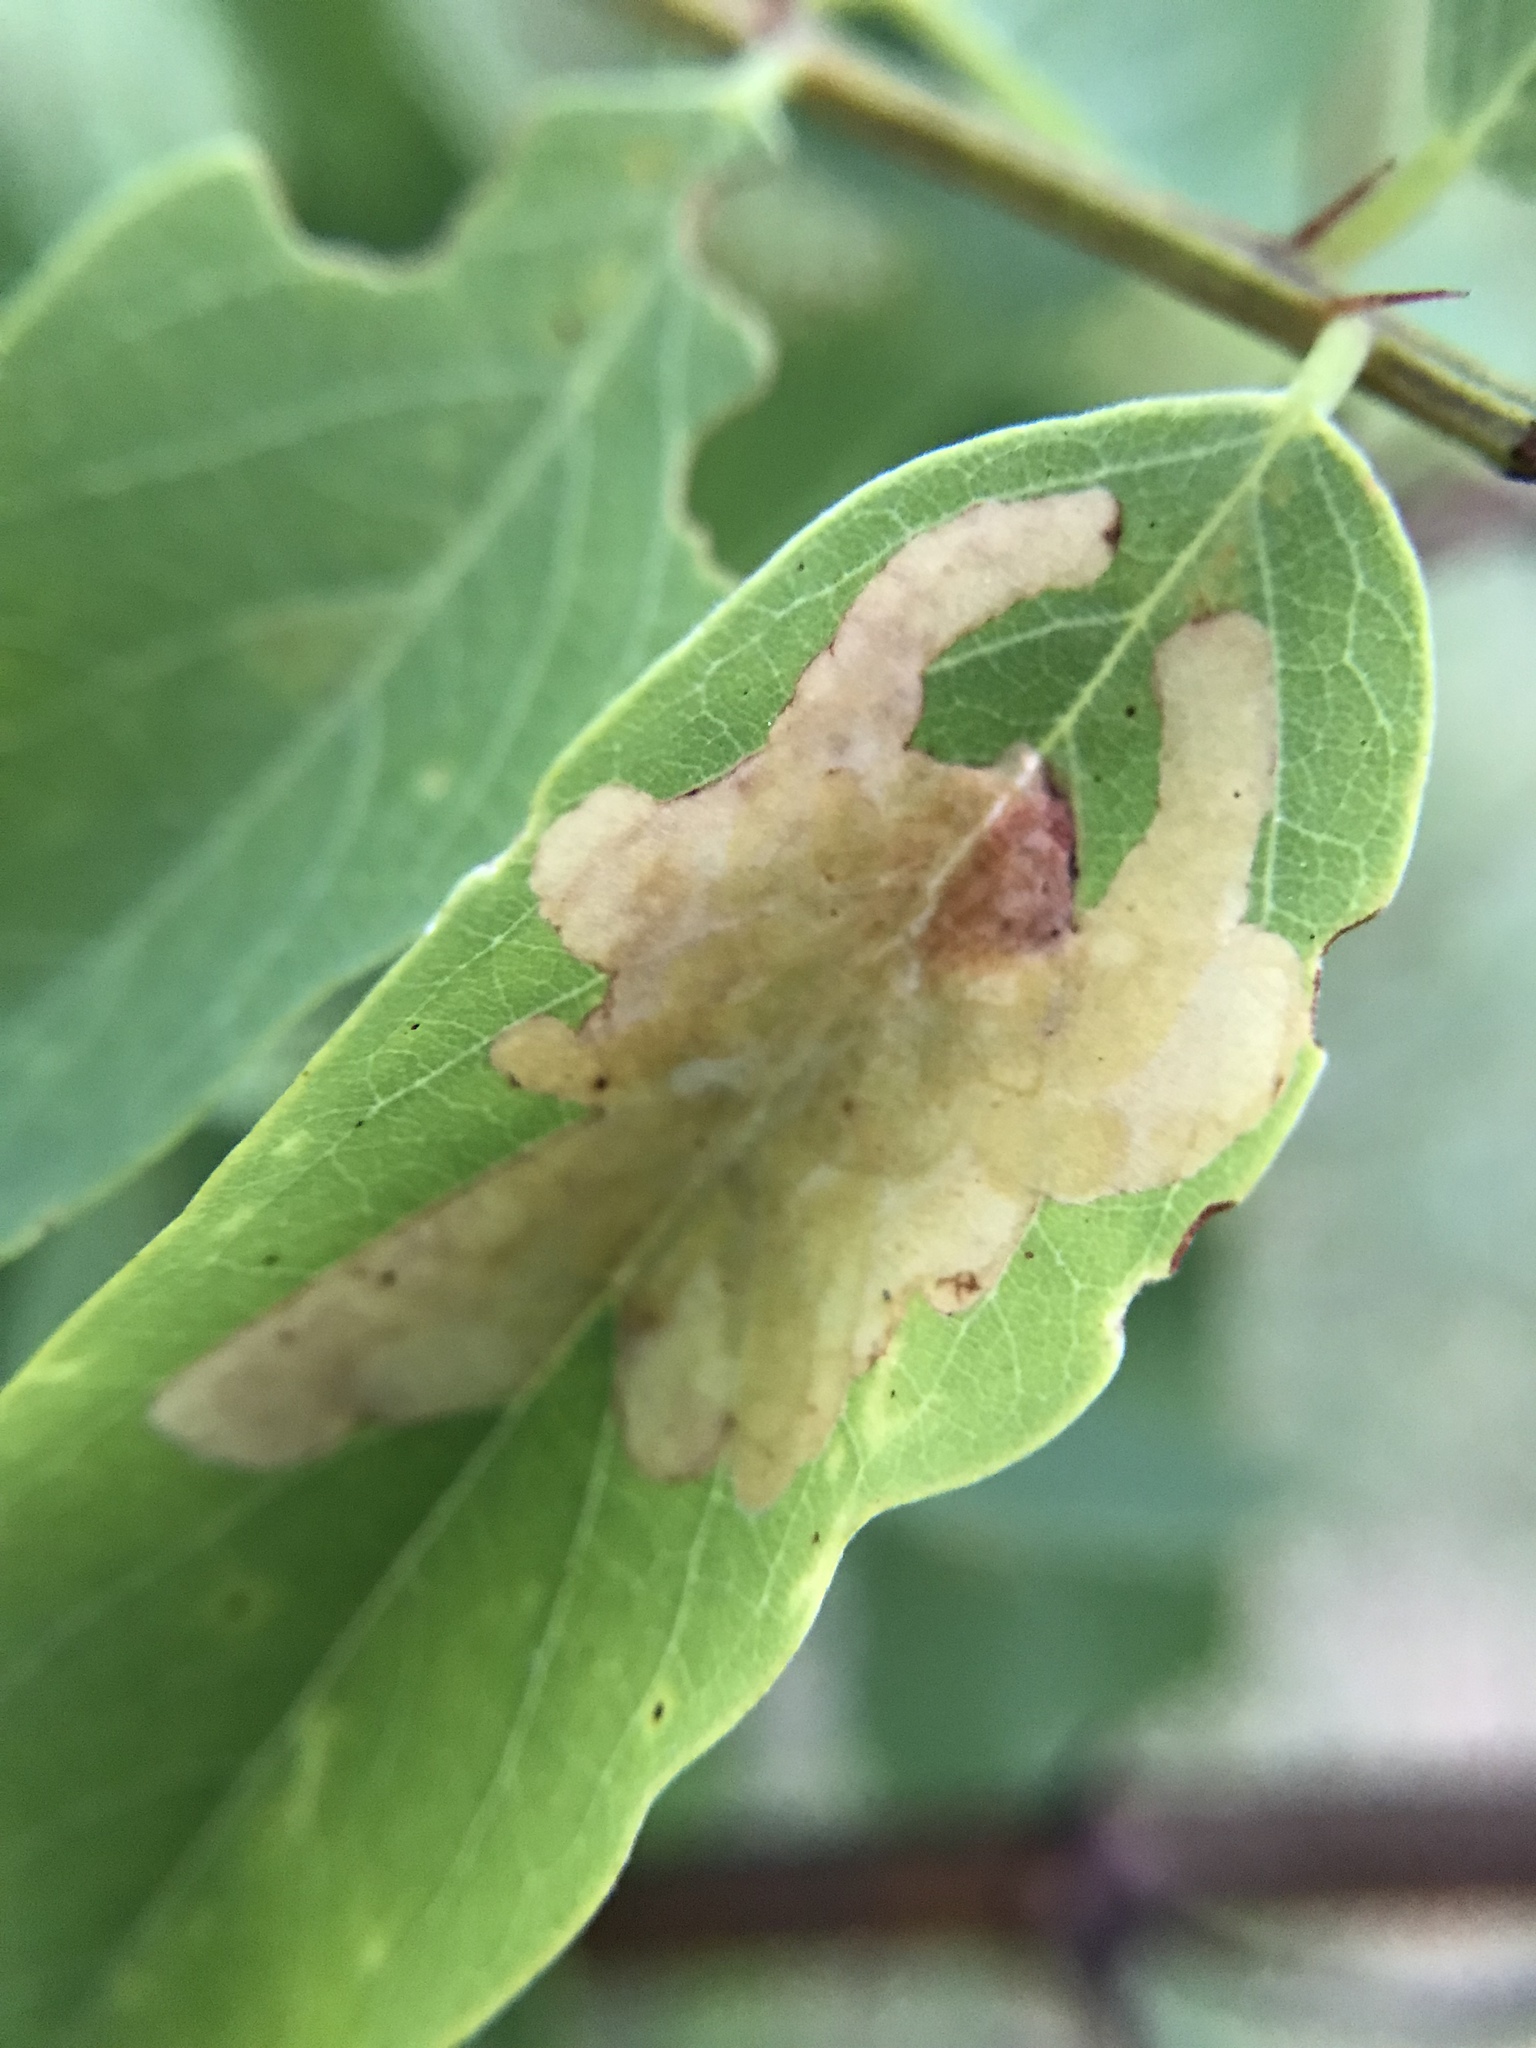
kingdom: Animalia
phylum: Arthropoda
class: Insecta
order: Lepidoptera
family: Gracillariidae
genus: Parectopa
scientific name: Parectopa robiniella
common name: Locust digitate leafminer
